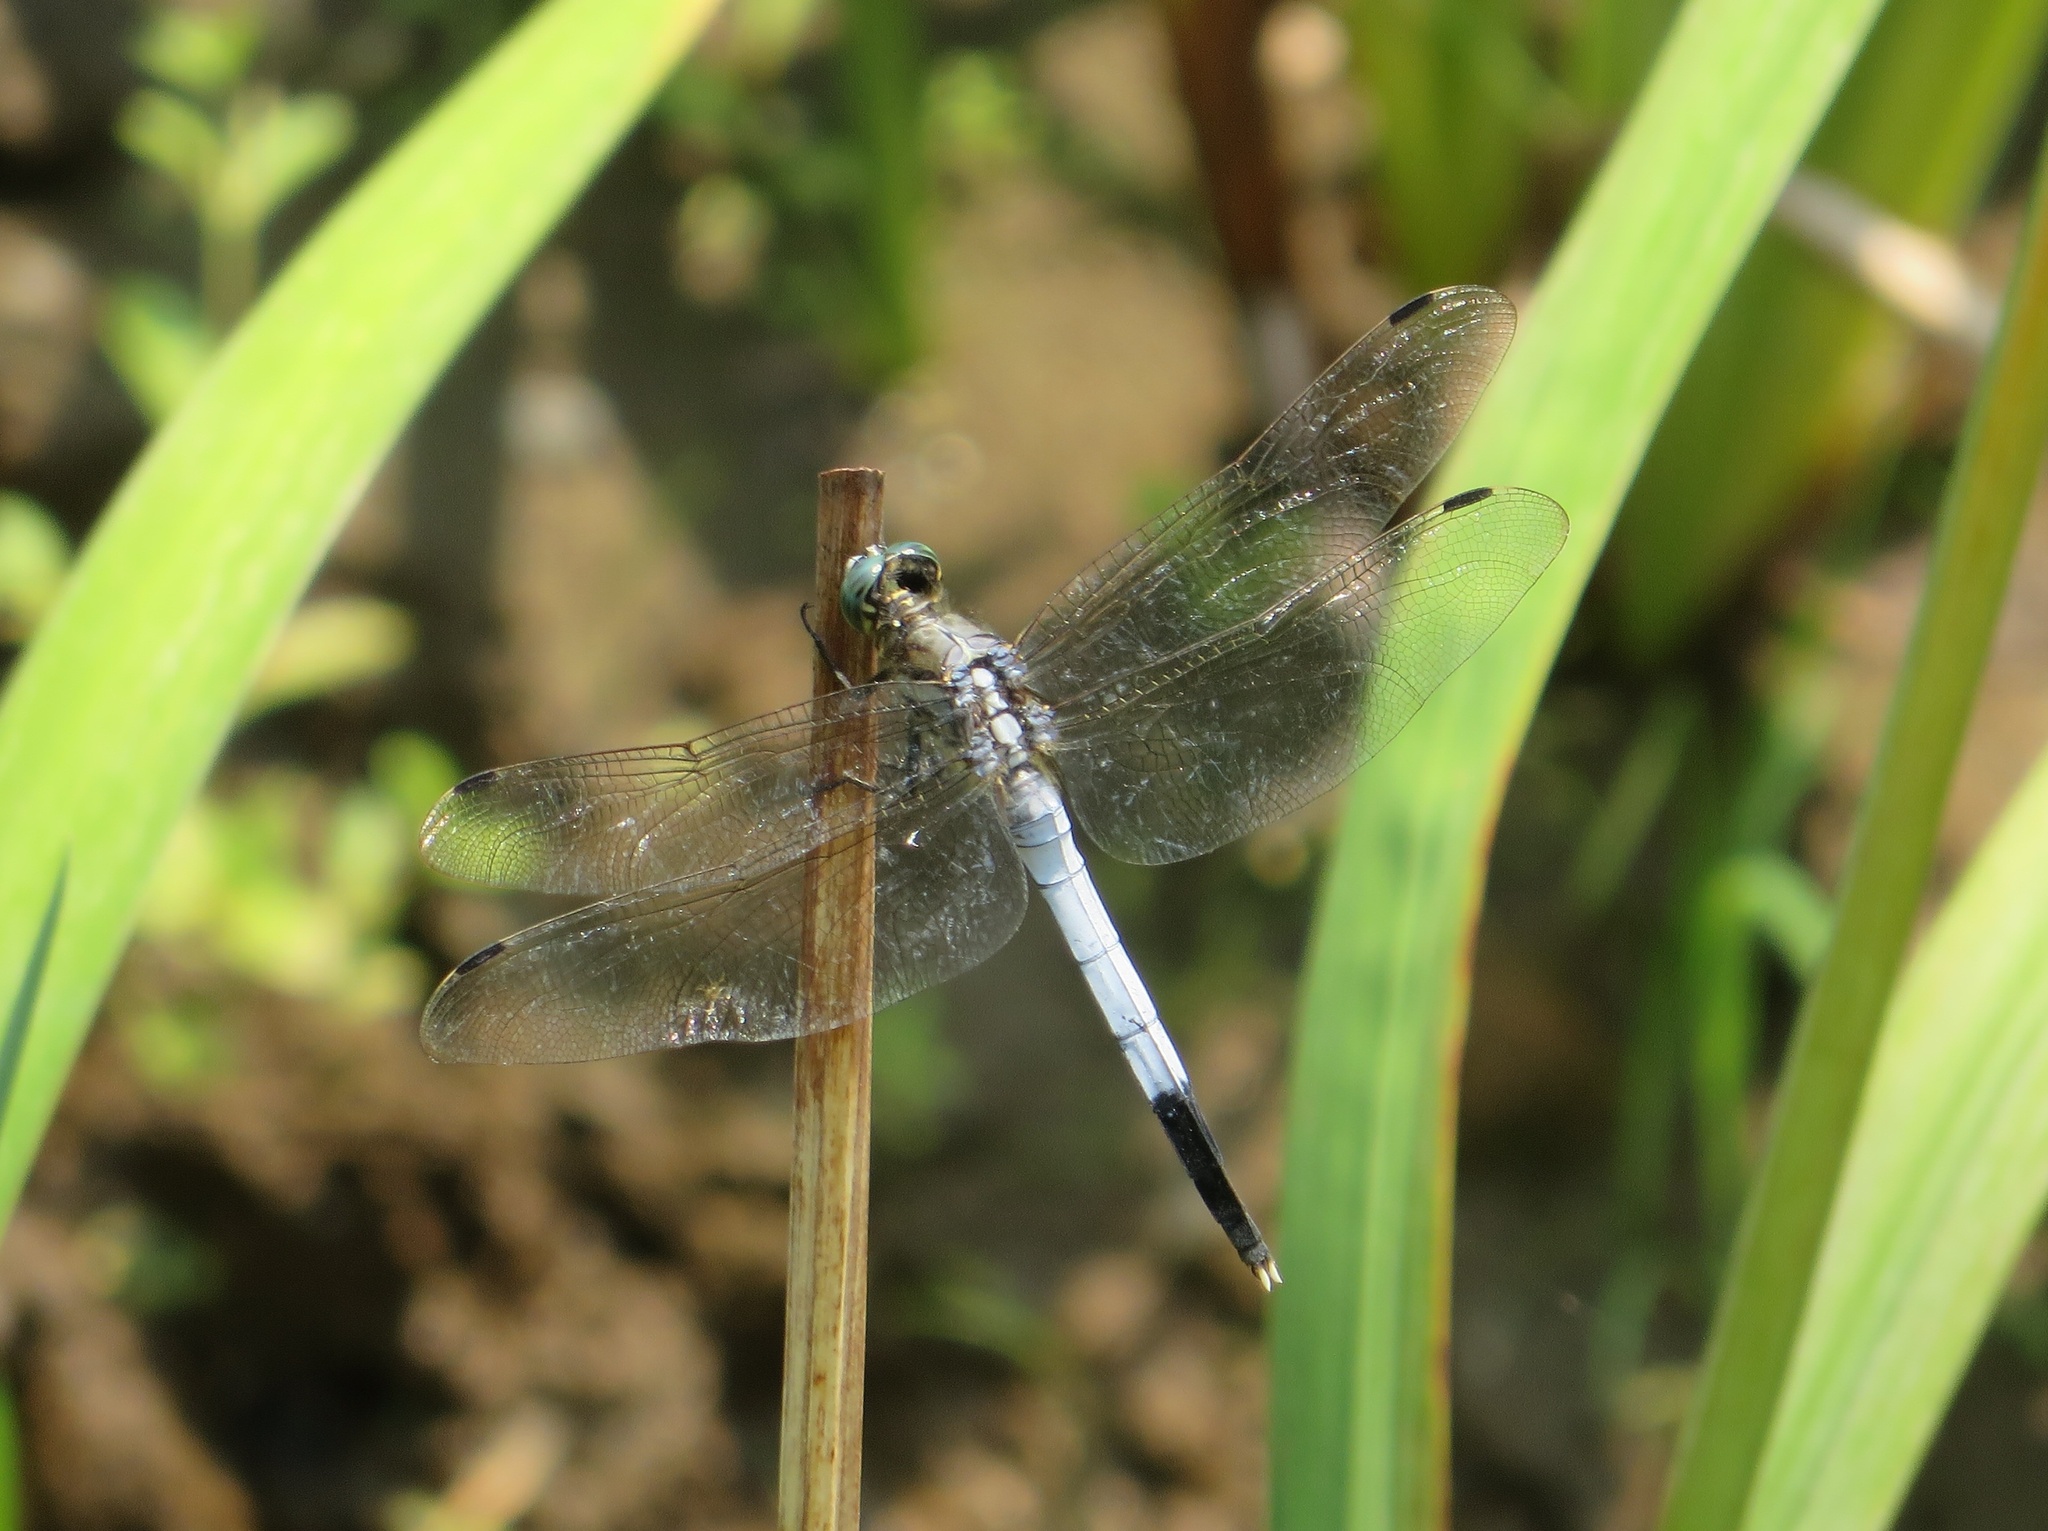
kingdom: Animalia
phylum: Arthropoda
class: Insecta
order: Odonata
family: Libellulidae
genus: Orthetrum
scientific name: Orthetrum albistylum
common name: White-tailed skimmer
